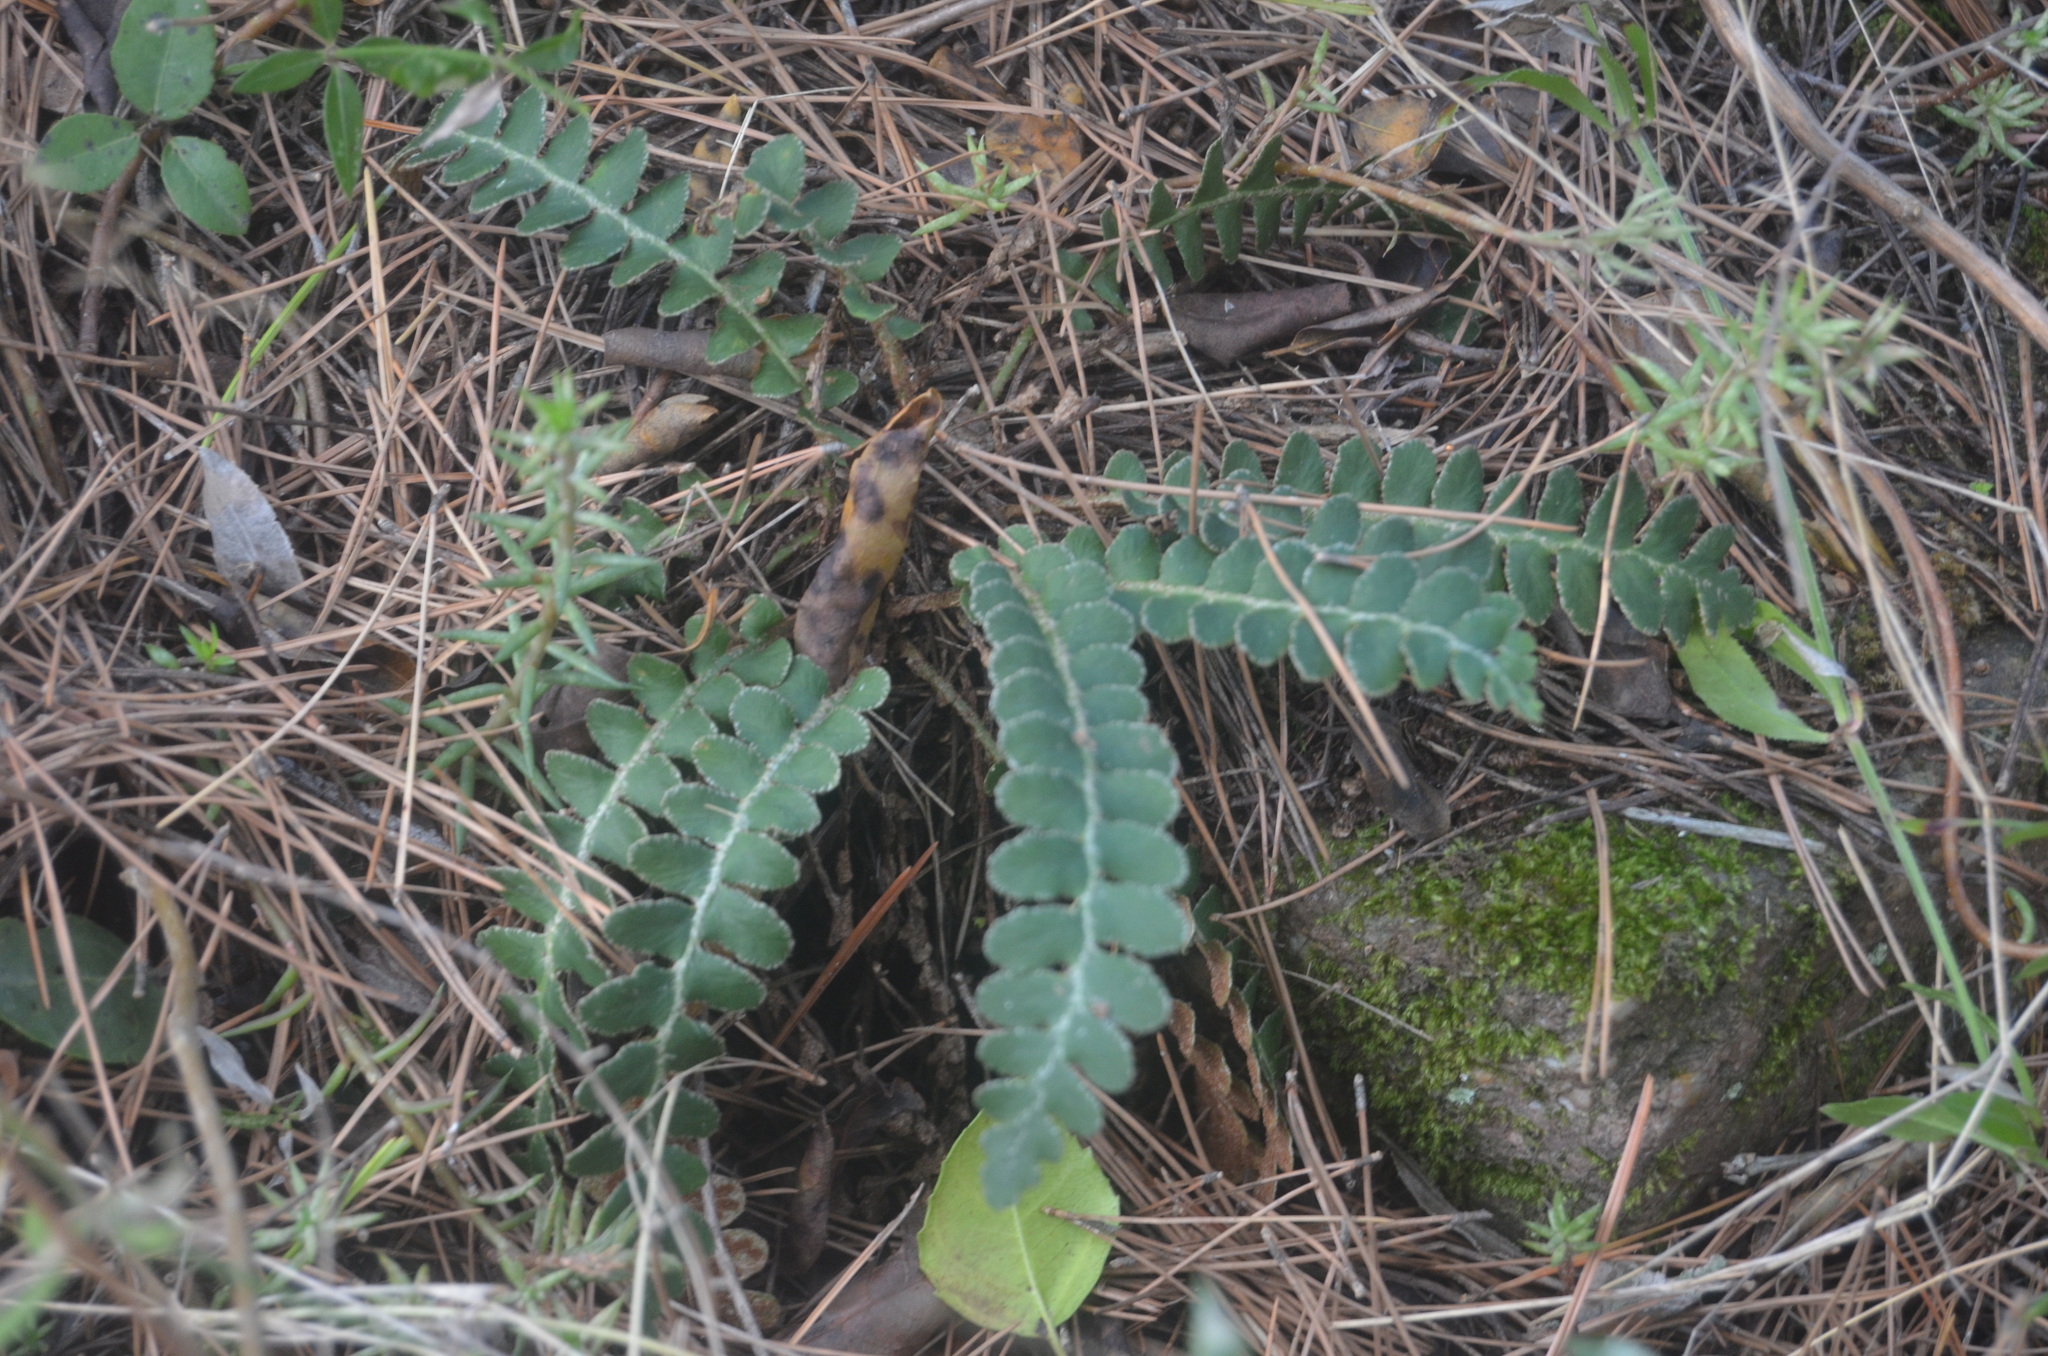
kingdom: Plantae
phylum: Tracheophyta
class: Polypodiopsida
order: Polypodiales
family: Aspleniaceae
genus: Asplenium
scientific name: Asplenium ceterach
